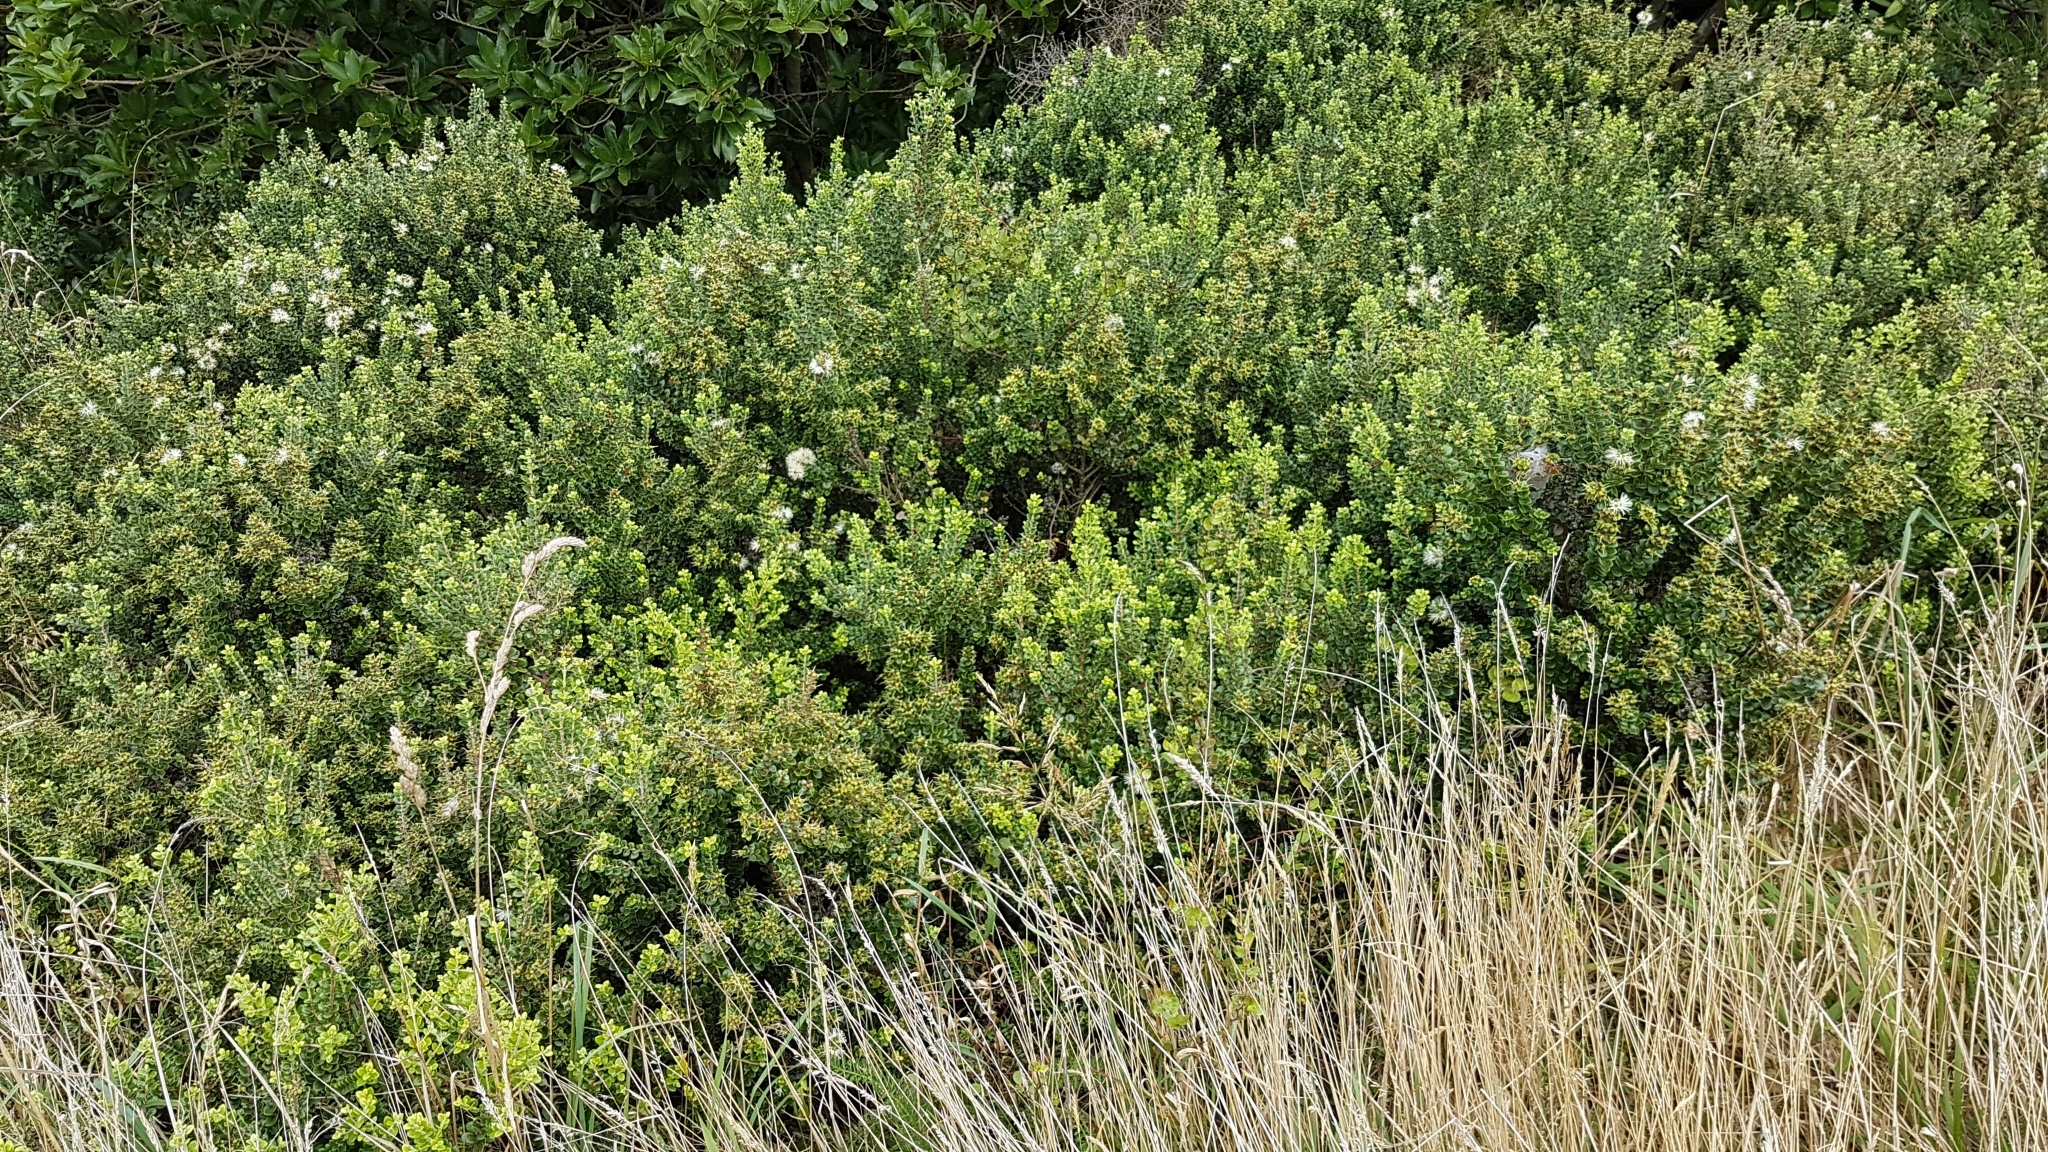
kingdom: Plantae
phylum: Tracheophyta
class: Magnoliopsida
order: Myrtales
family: Myrtaceae
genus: Metrosideros
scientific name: Metrosideros perforata
